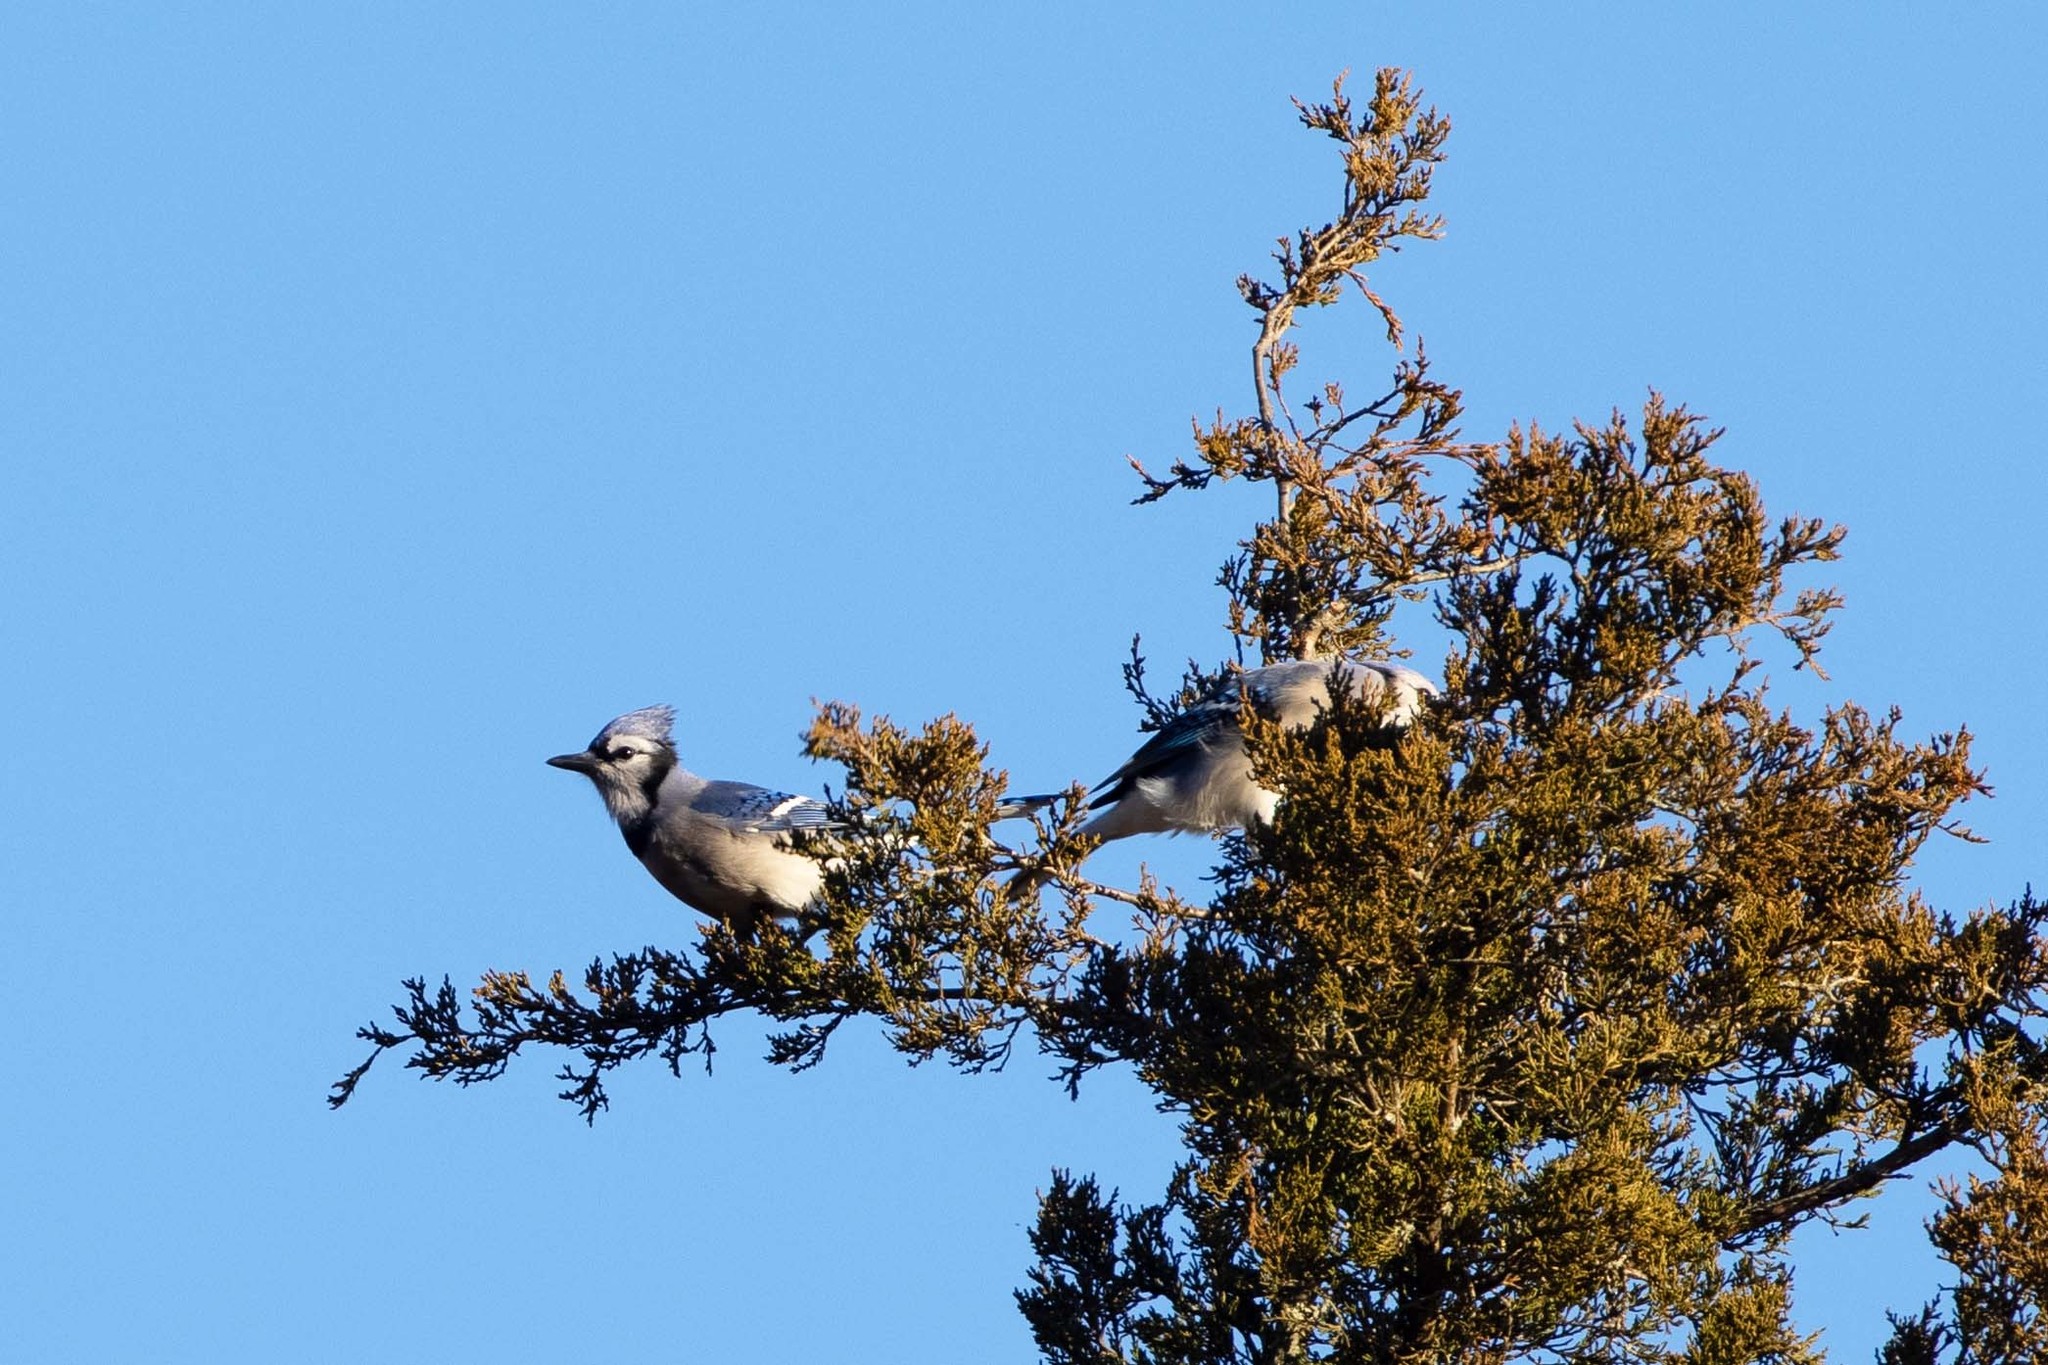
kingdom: Animalia
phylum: Chordata
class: Aves
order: Passeriformes
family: Corvidae
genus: Cyanocitta
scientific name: Cyanocitta cristata
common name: Blue jay
